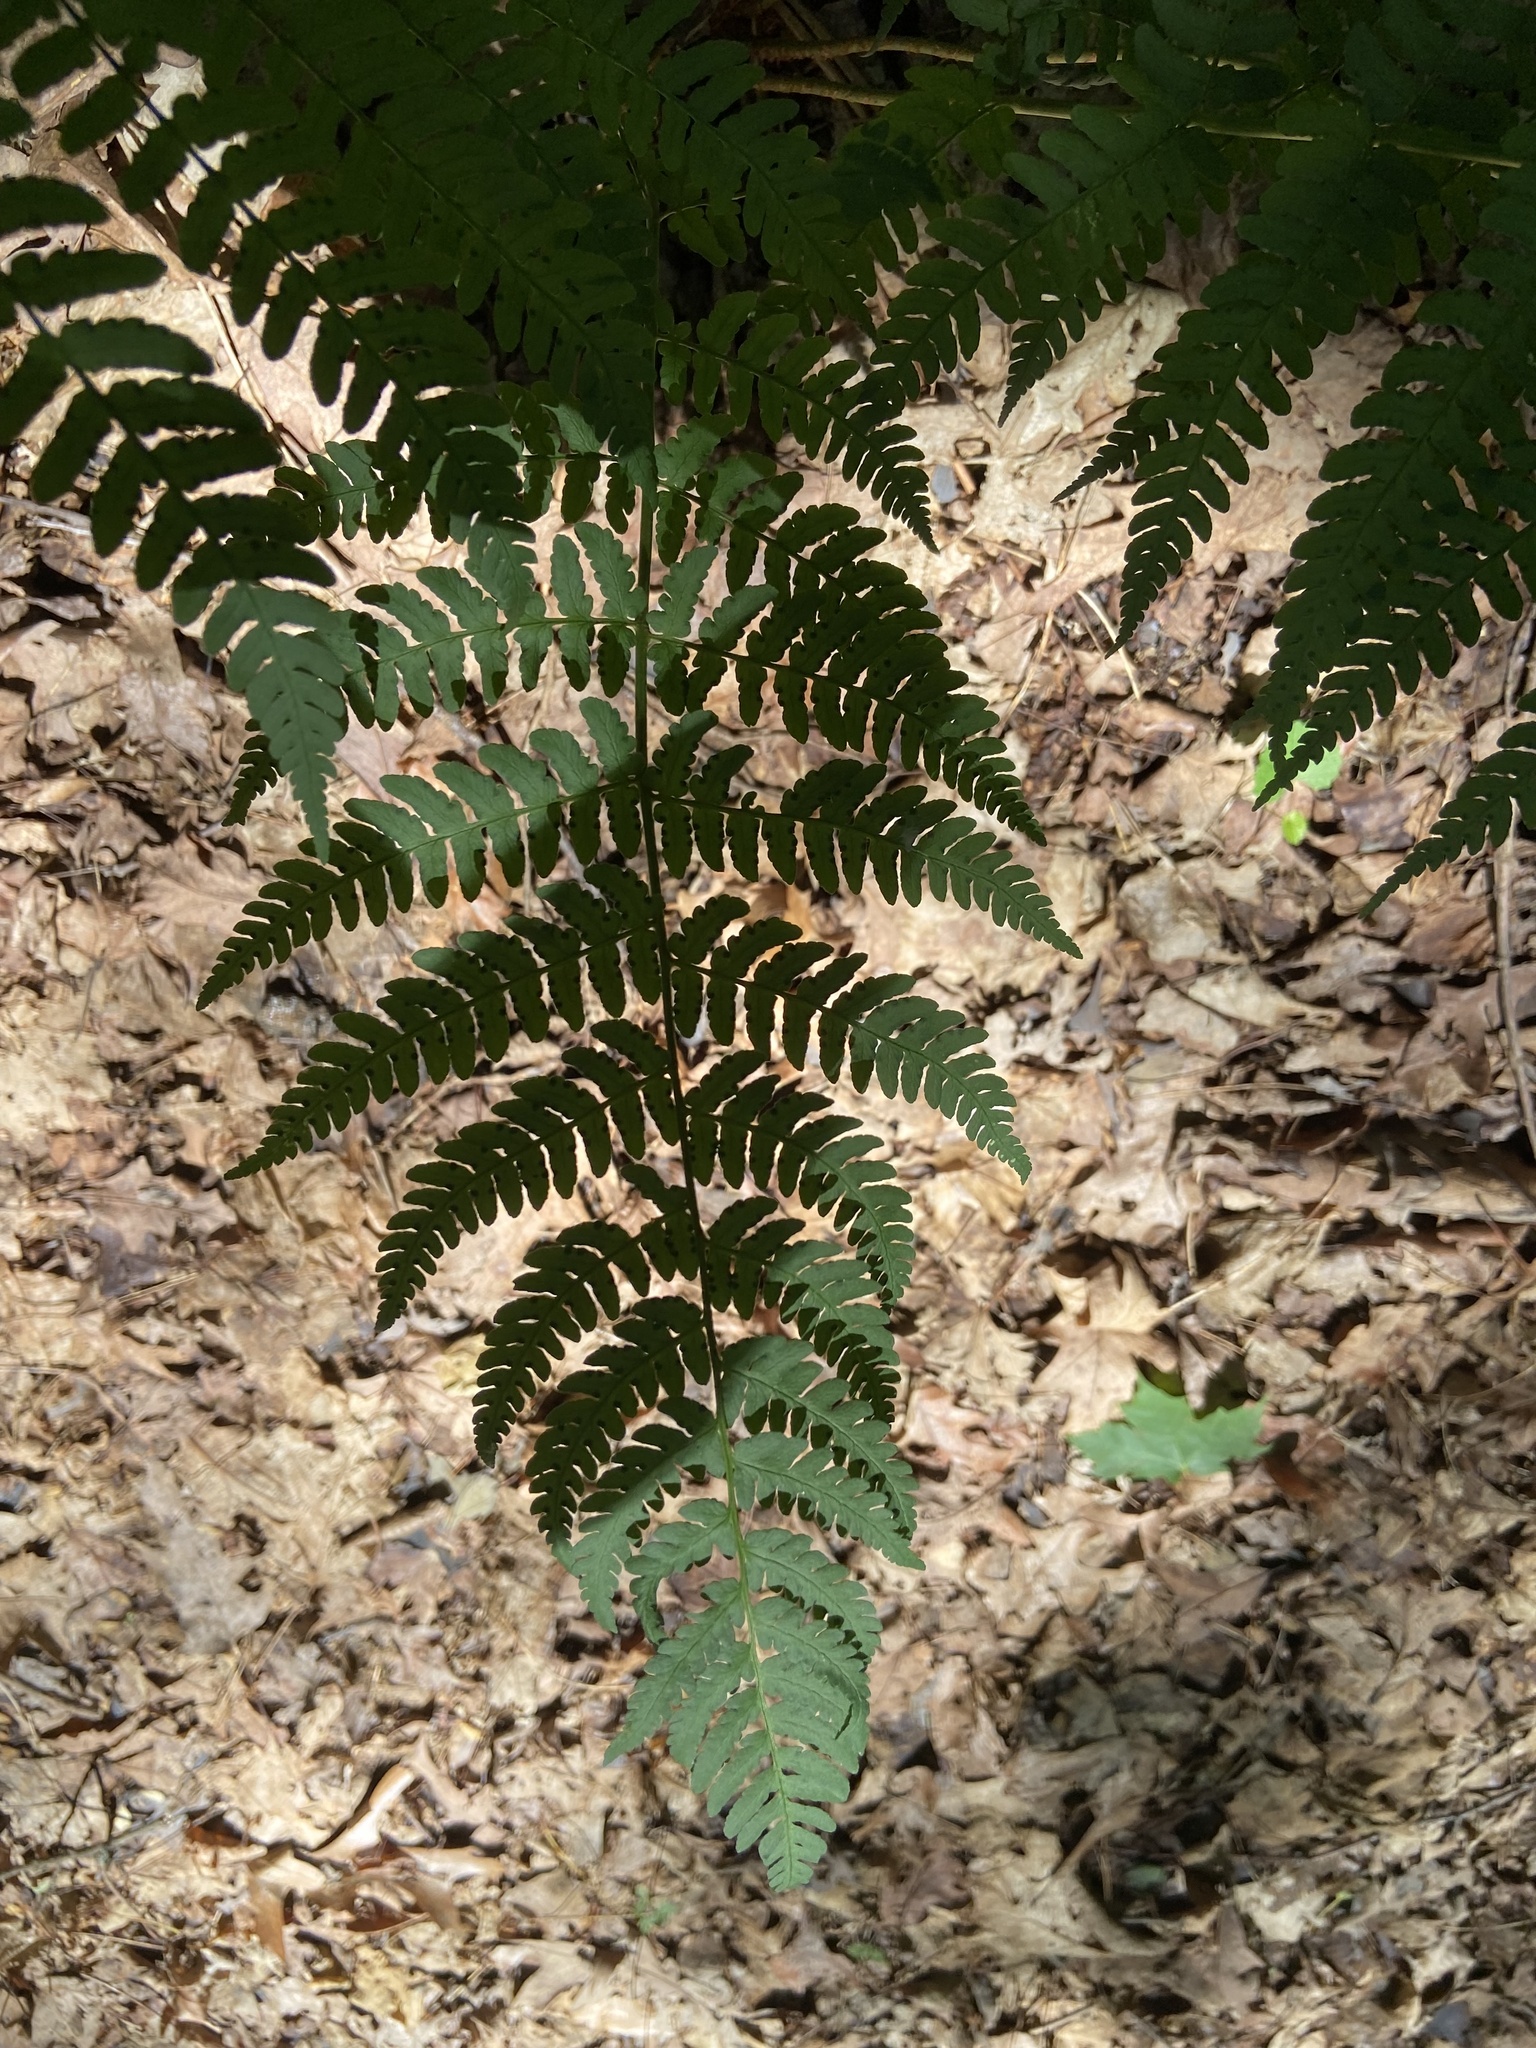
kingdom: Plantae
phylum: Tracheophyta
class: Polypodiopsida
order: Polypodiales
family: Dryopteridaceae
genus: Dryopteris
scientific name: Dryopteris marginalis
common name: Marginal wood fern
